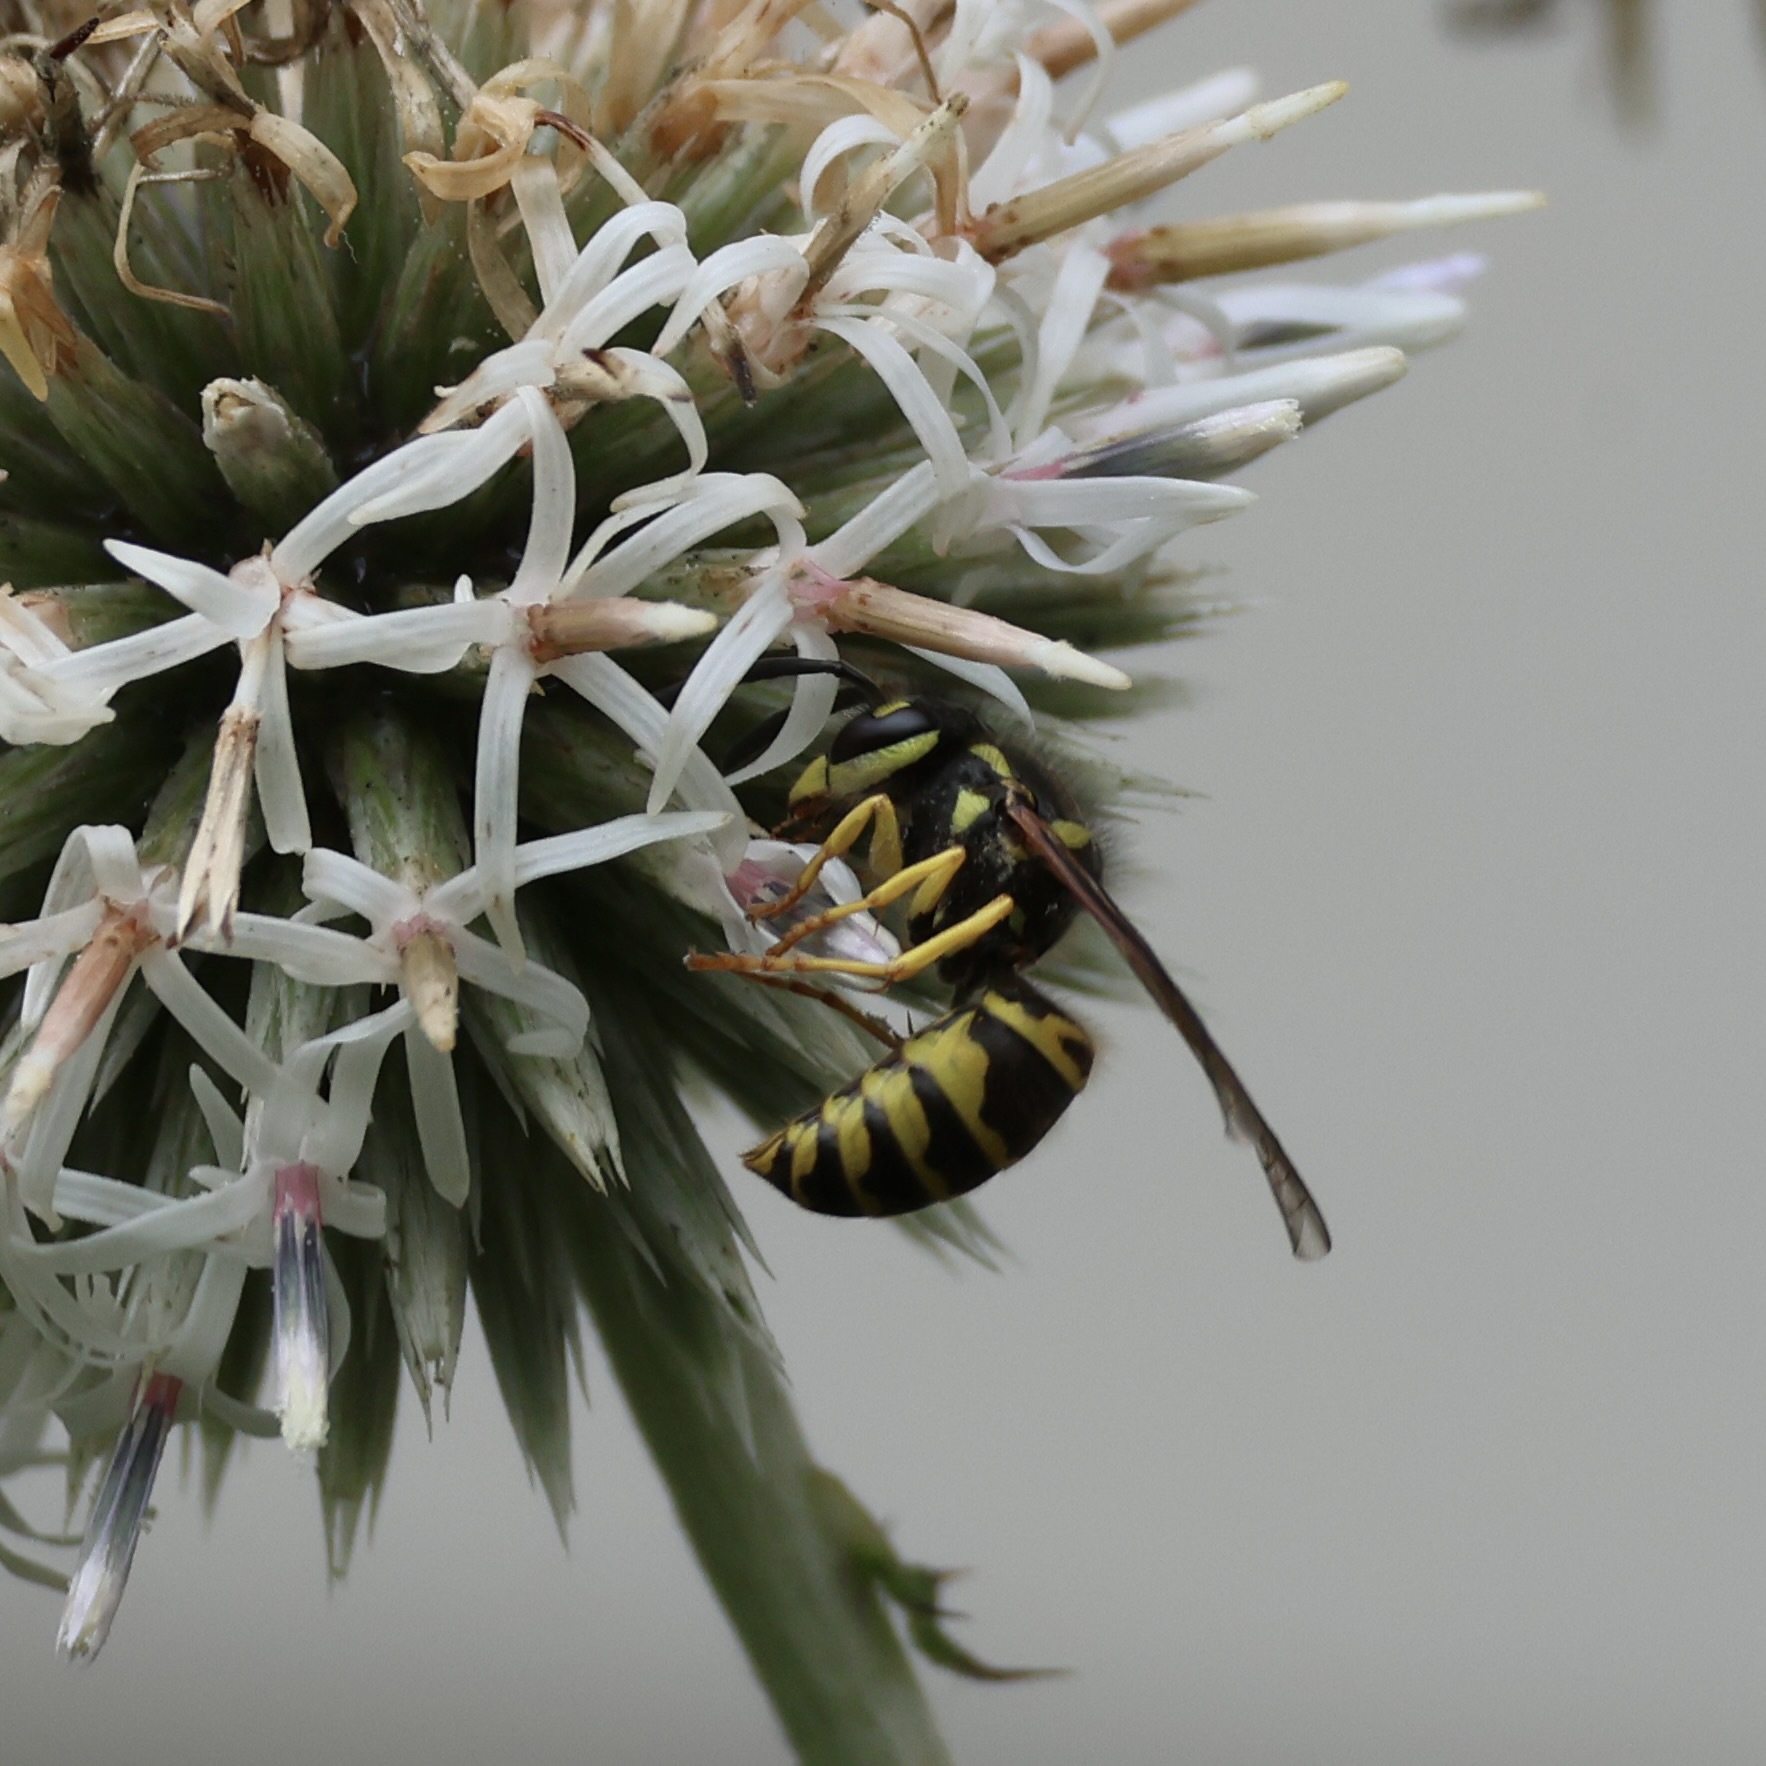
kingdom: Animalia
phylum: Arthropoda
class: Insecta
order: Hymenoptera
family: Vespidae
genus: Vespula
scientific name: Vespula maculifrons
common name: Eastern yellowjacket
